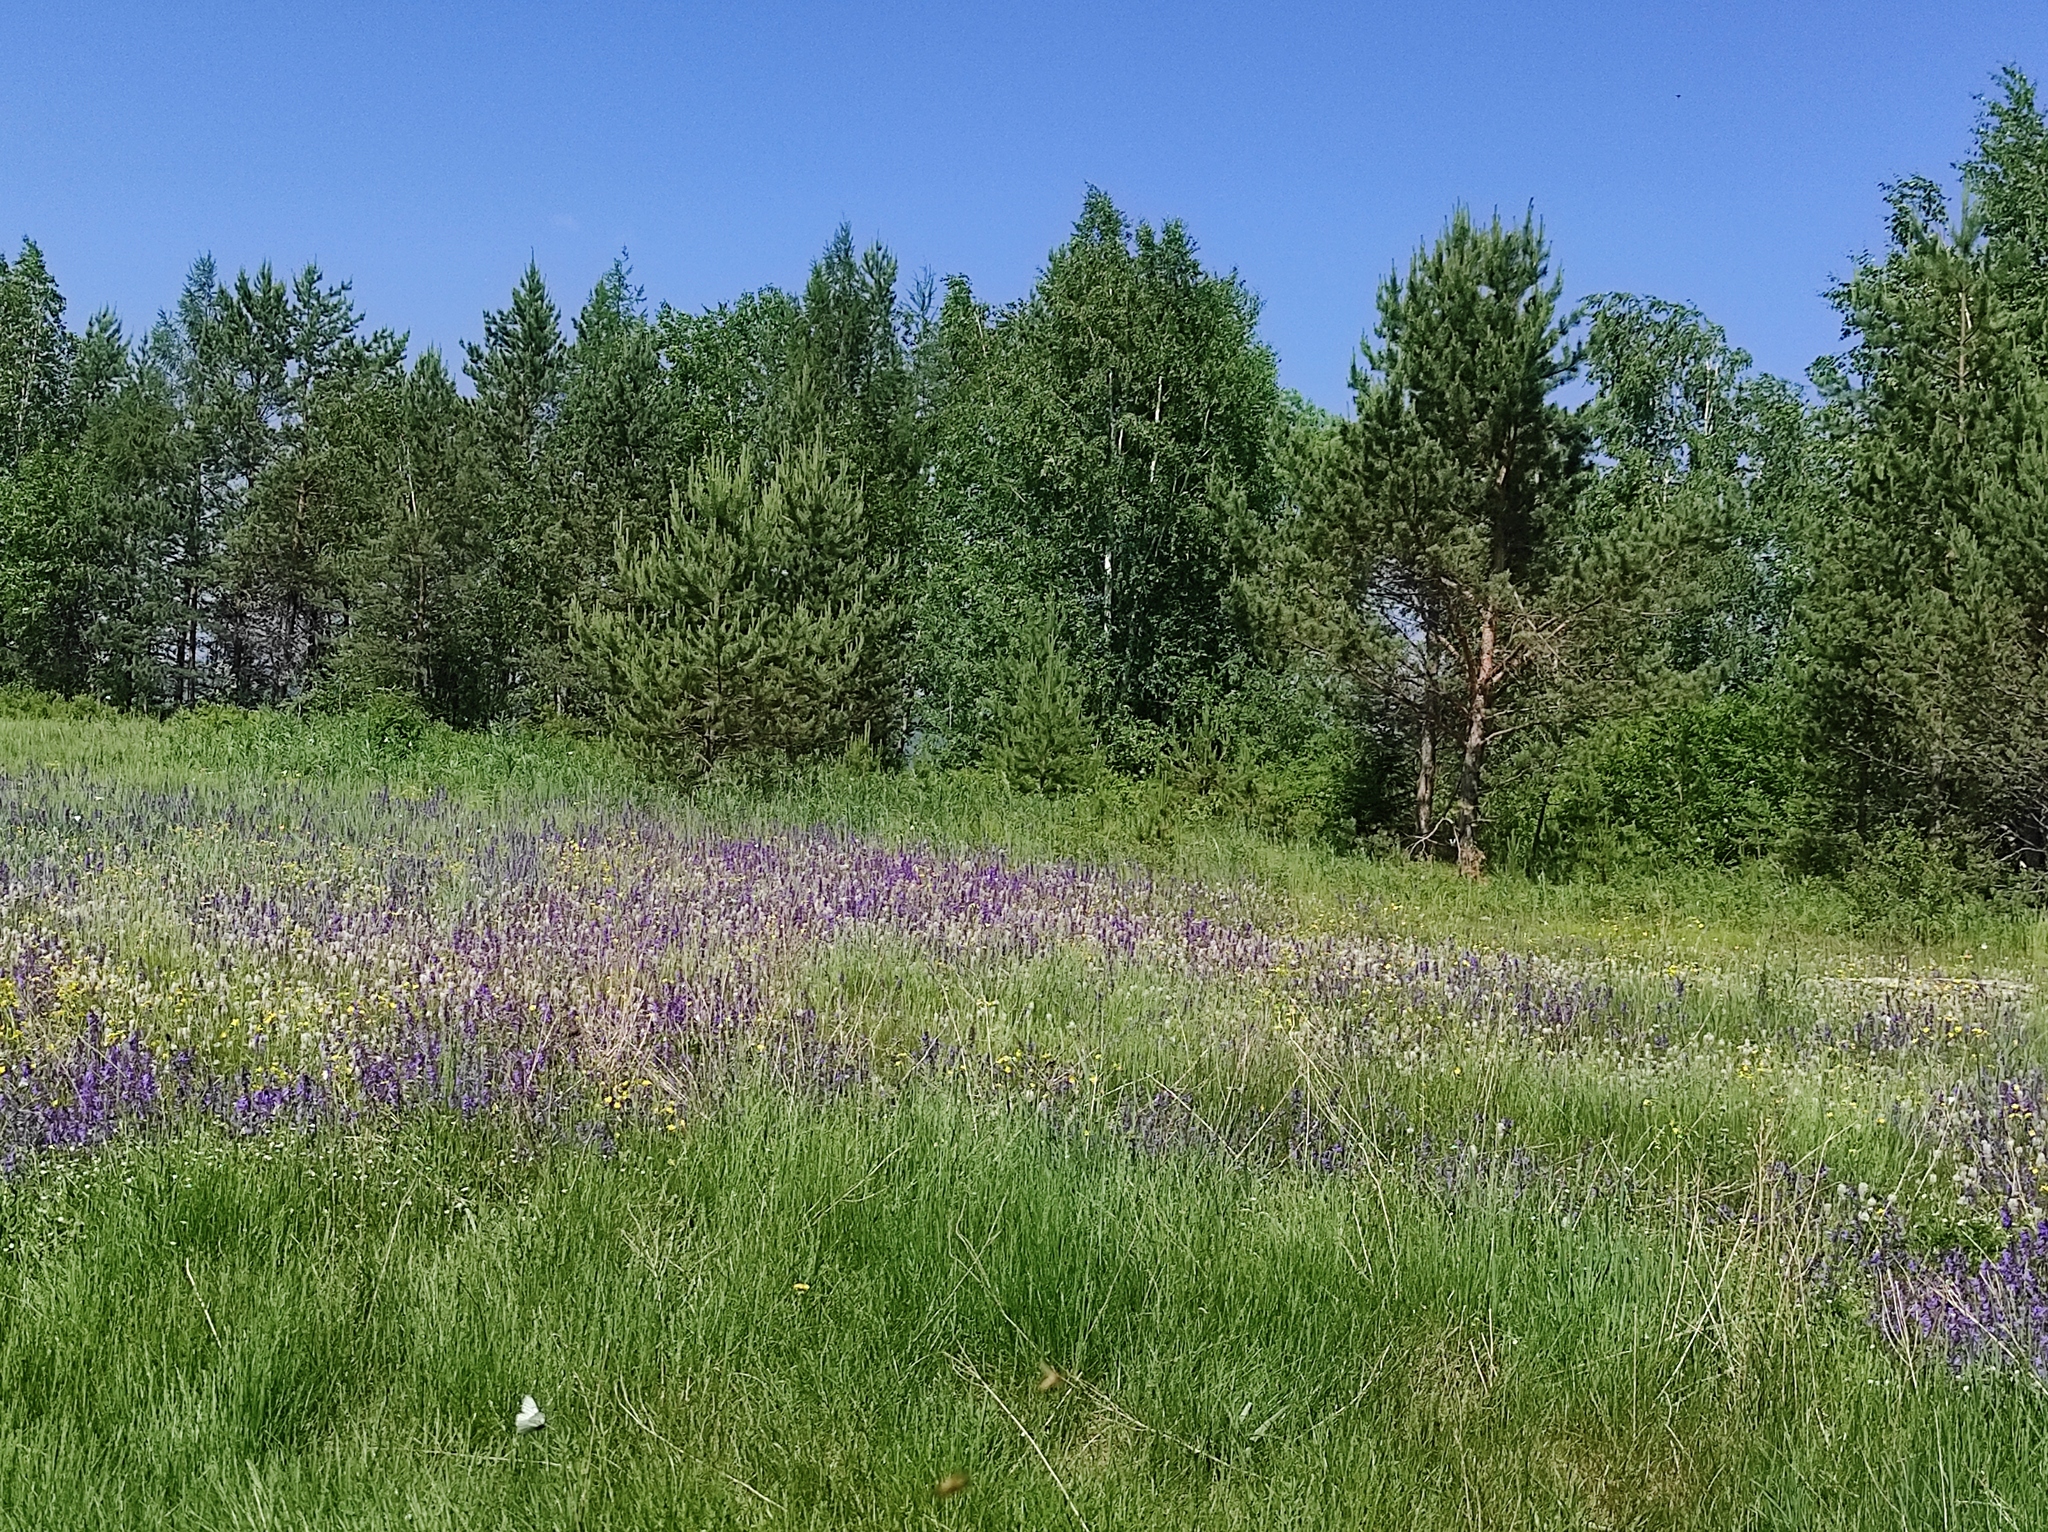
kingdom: Plantae
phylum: Tracheophyta
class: Magnoliopsida
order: Lamiales
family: Plantaginaceae
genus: Plantago
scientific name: Plantago media
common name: Hoary plantain
